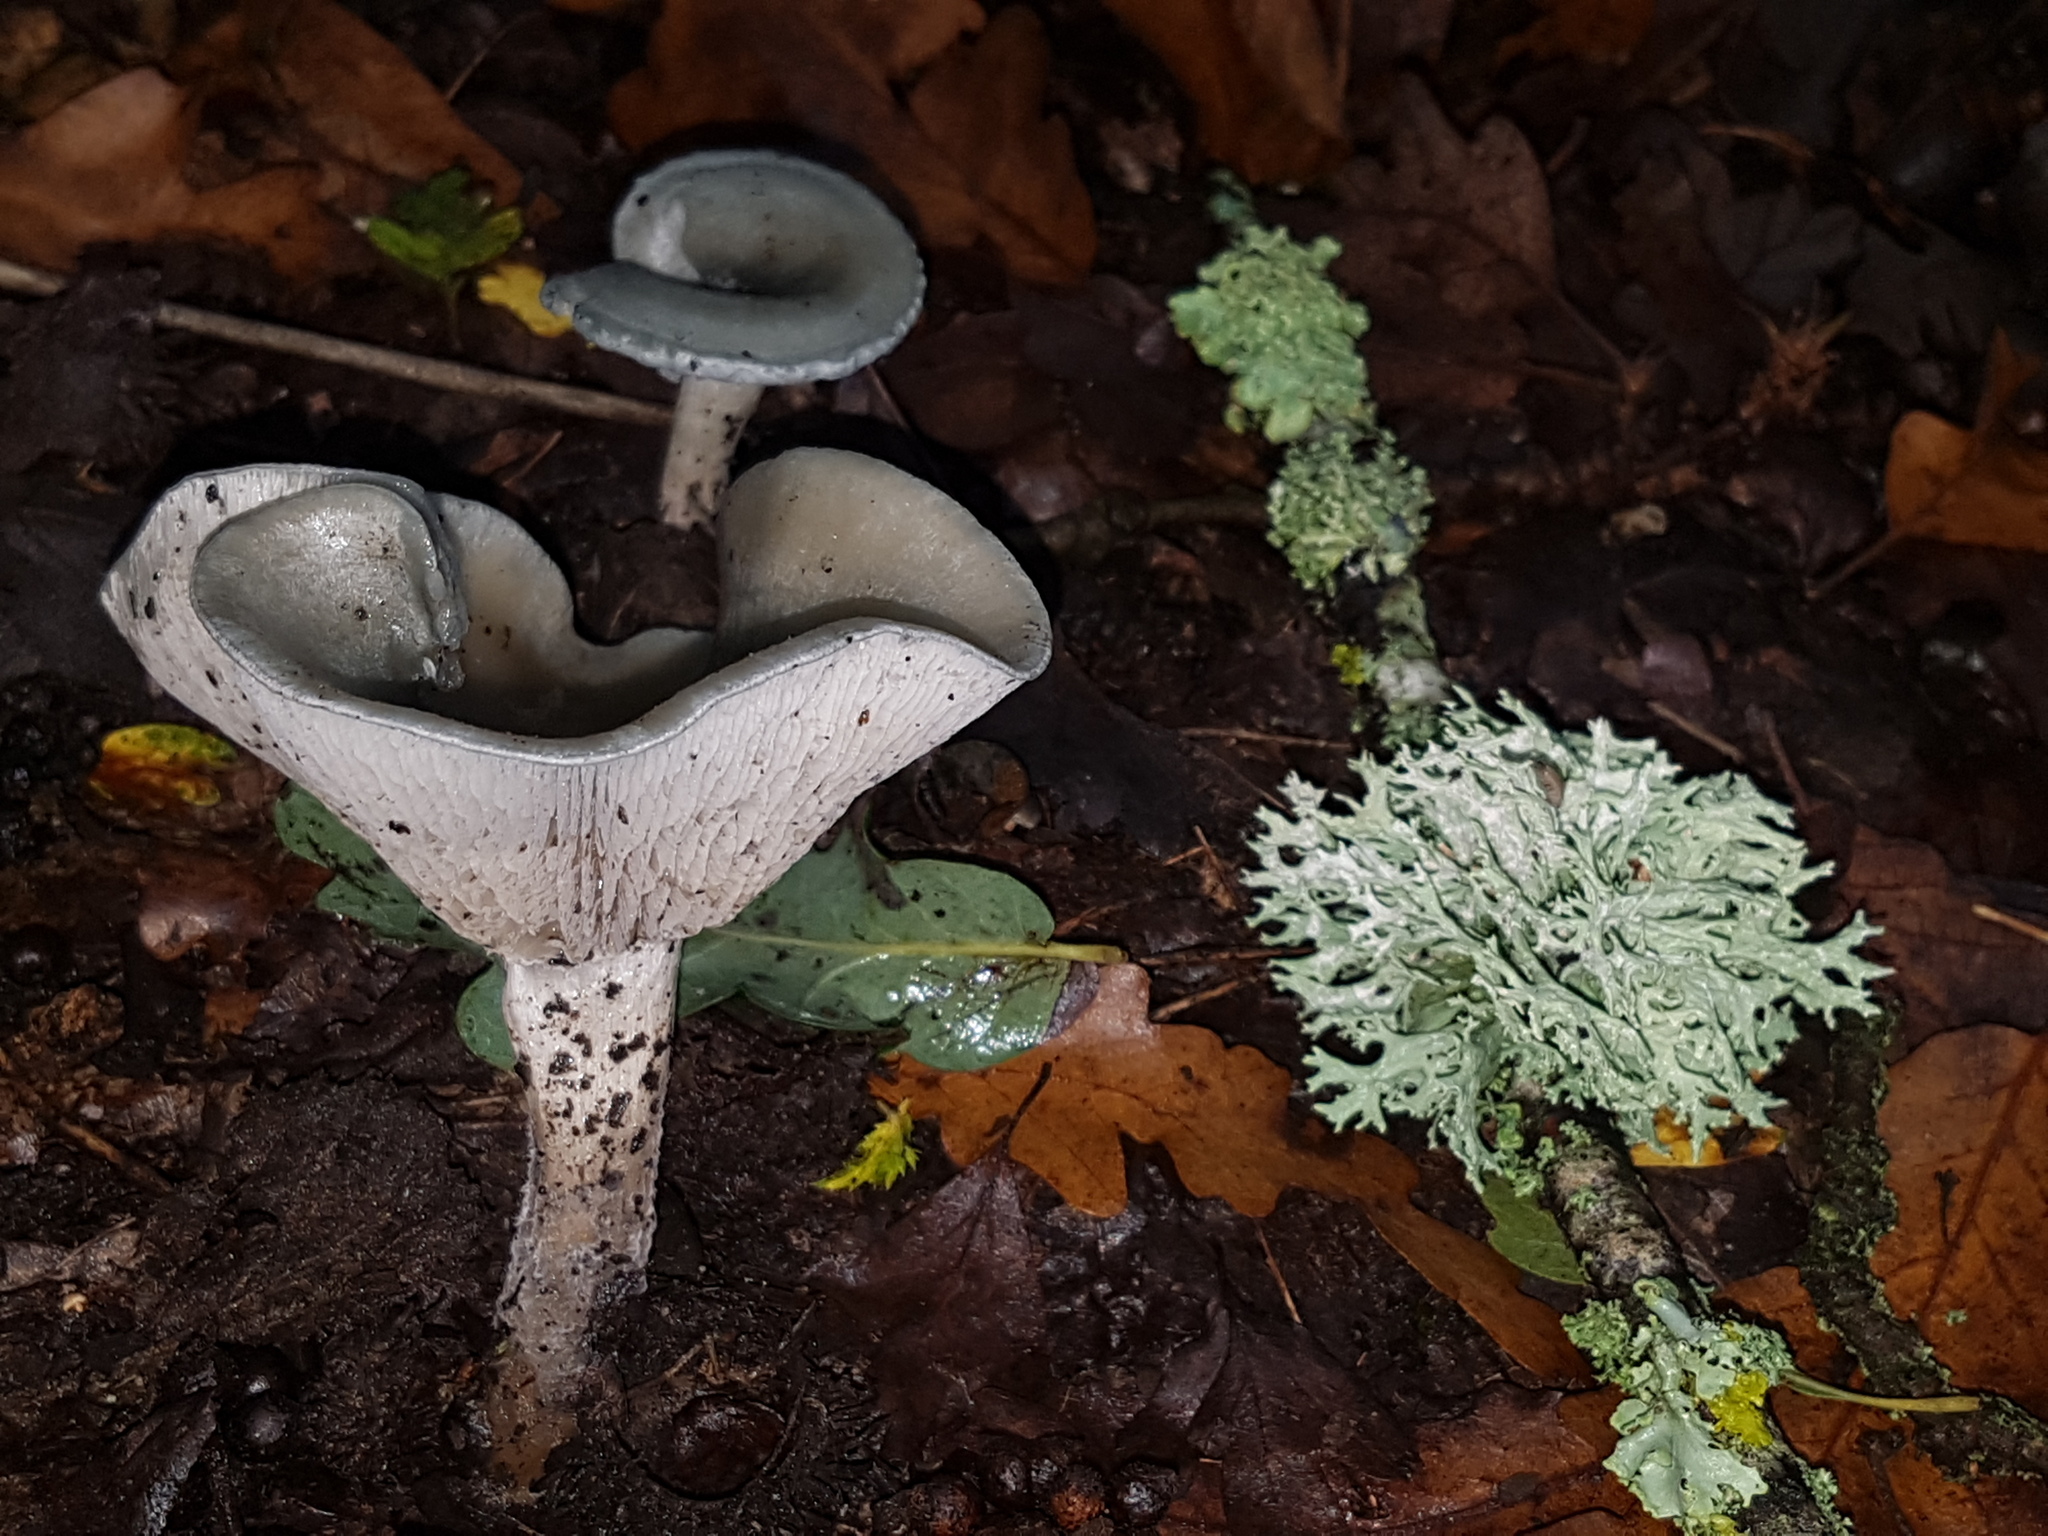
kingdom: Fungi
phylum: Basidiomycota
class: Agaricomycetes
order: Agaricales
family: Tricholomataceae
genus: Collybia
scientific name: Collybia
